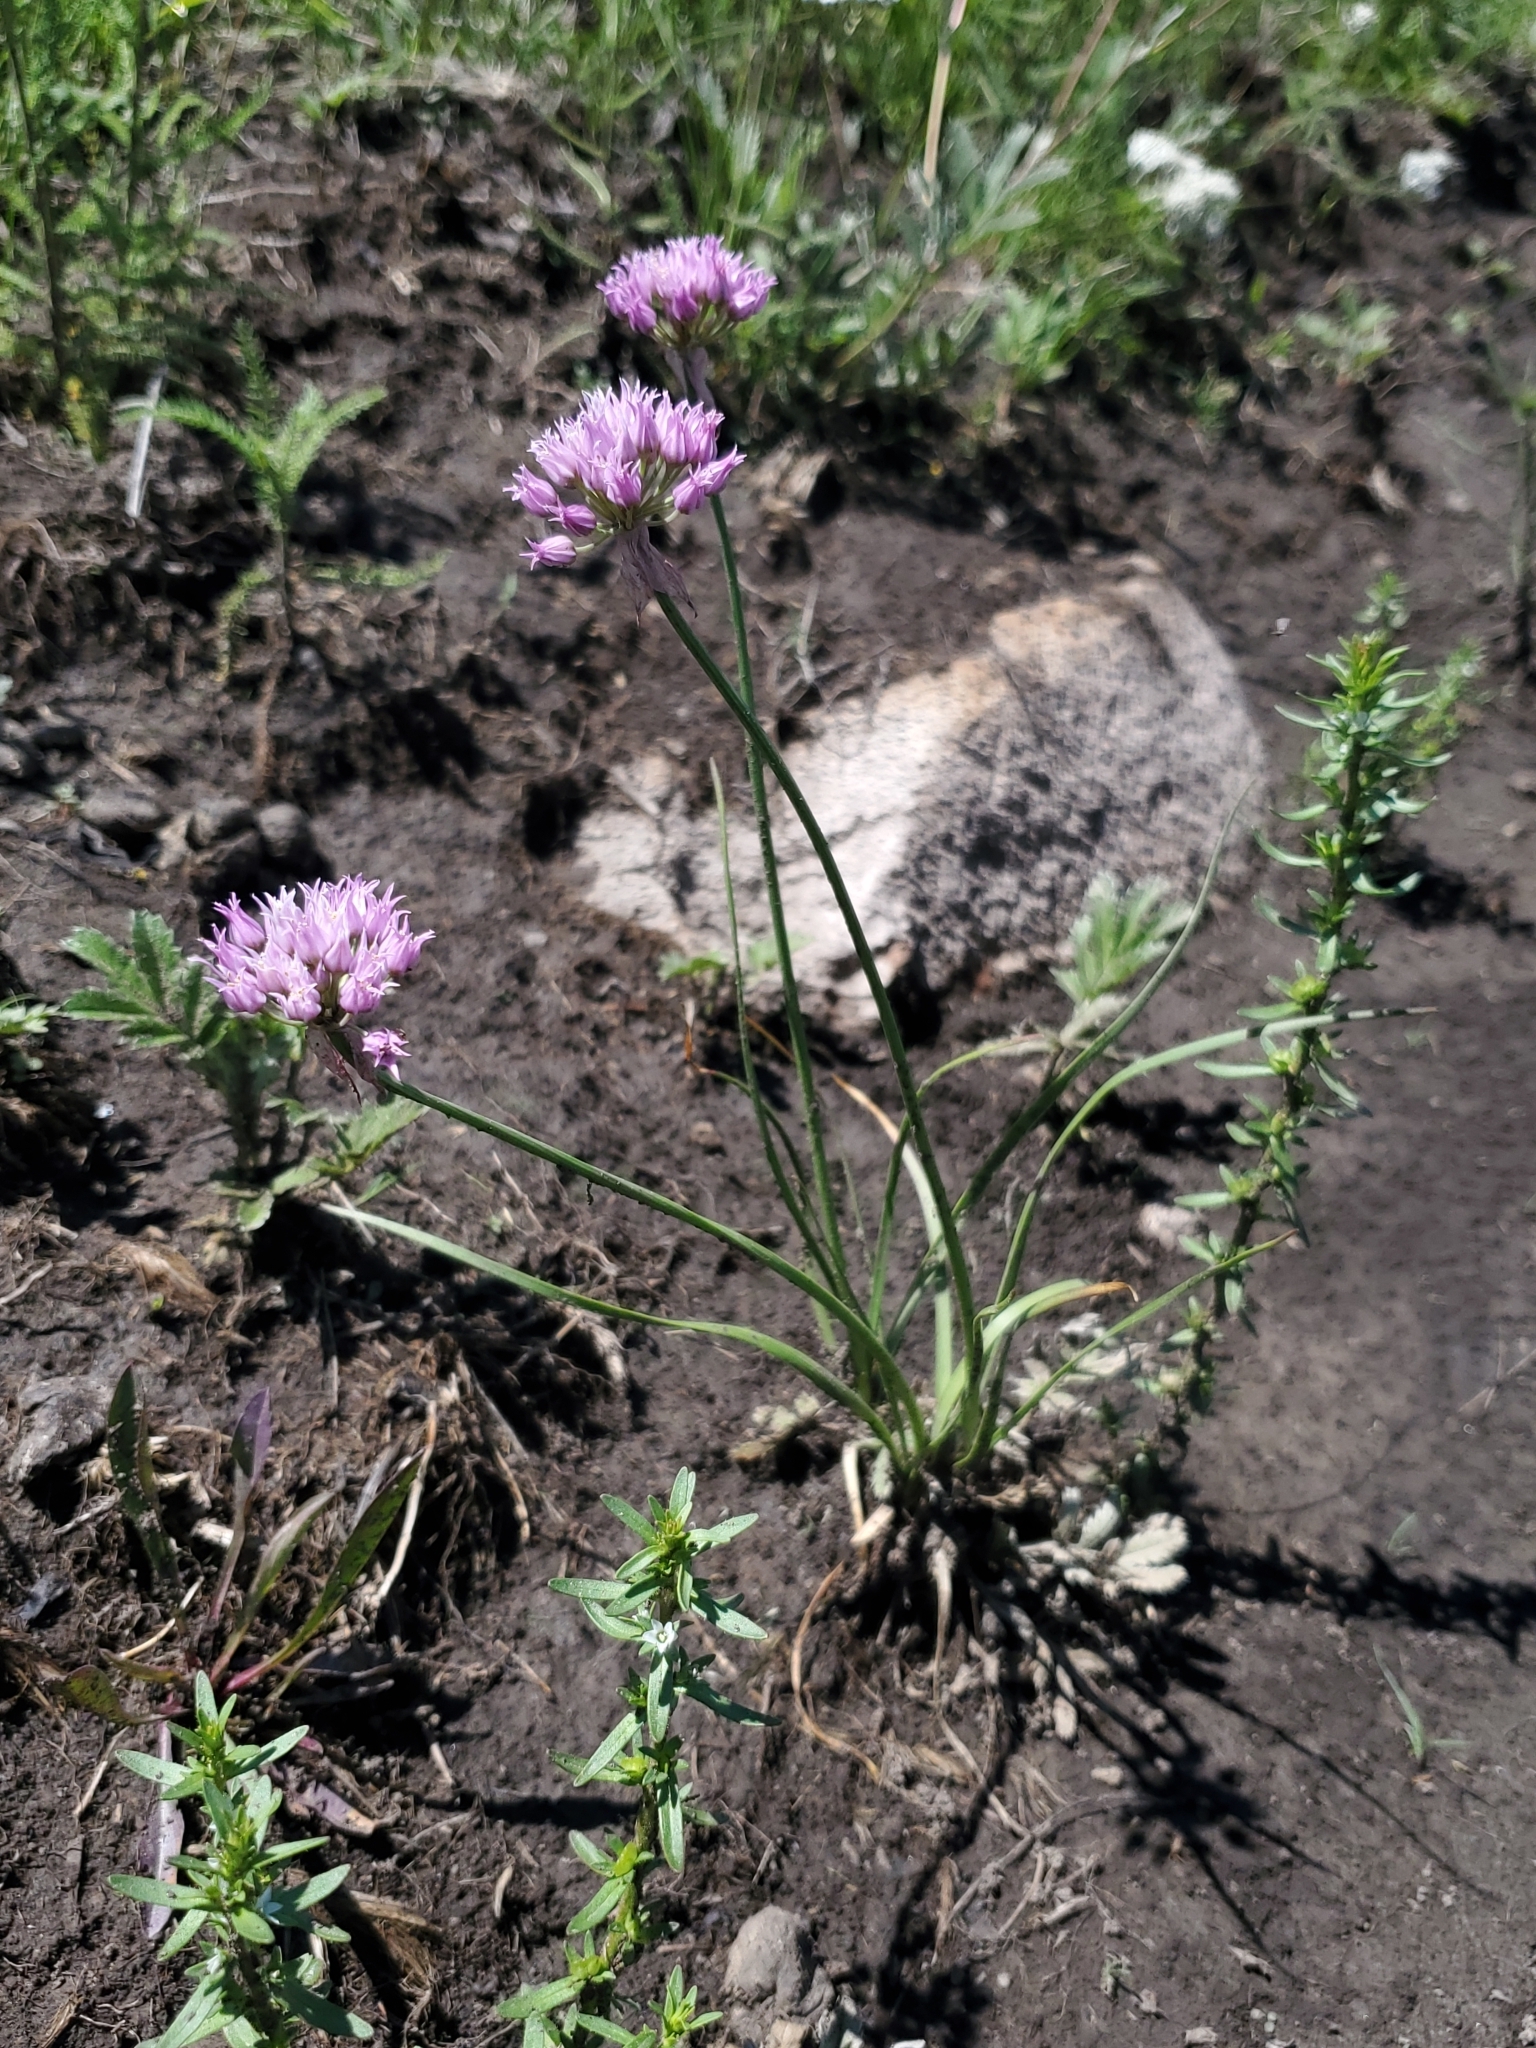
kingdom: Plantae
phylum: Tracheophyta
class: Liliopsida
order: Asparagales
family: Amaryllidaceae
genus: Allium
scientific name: Allium geyeri
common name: Geyer's onion
